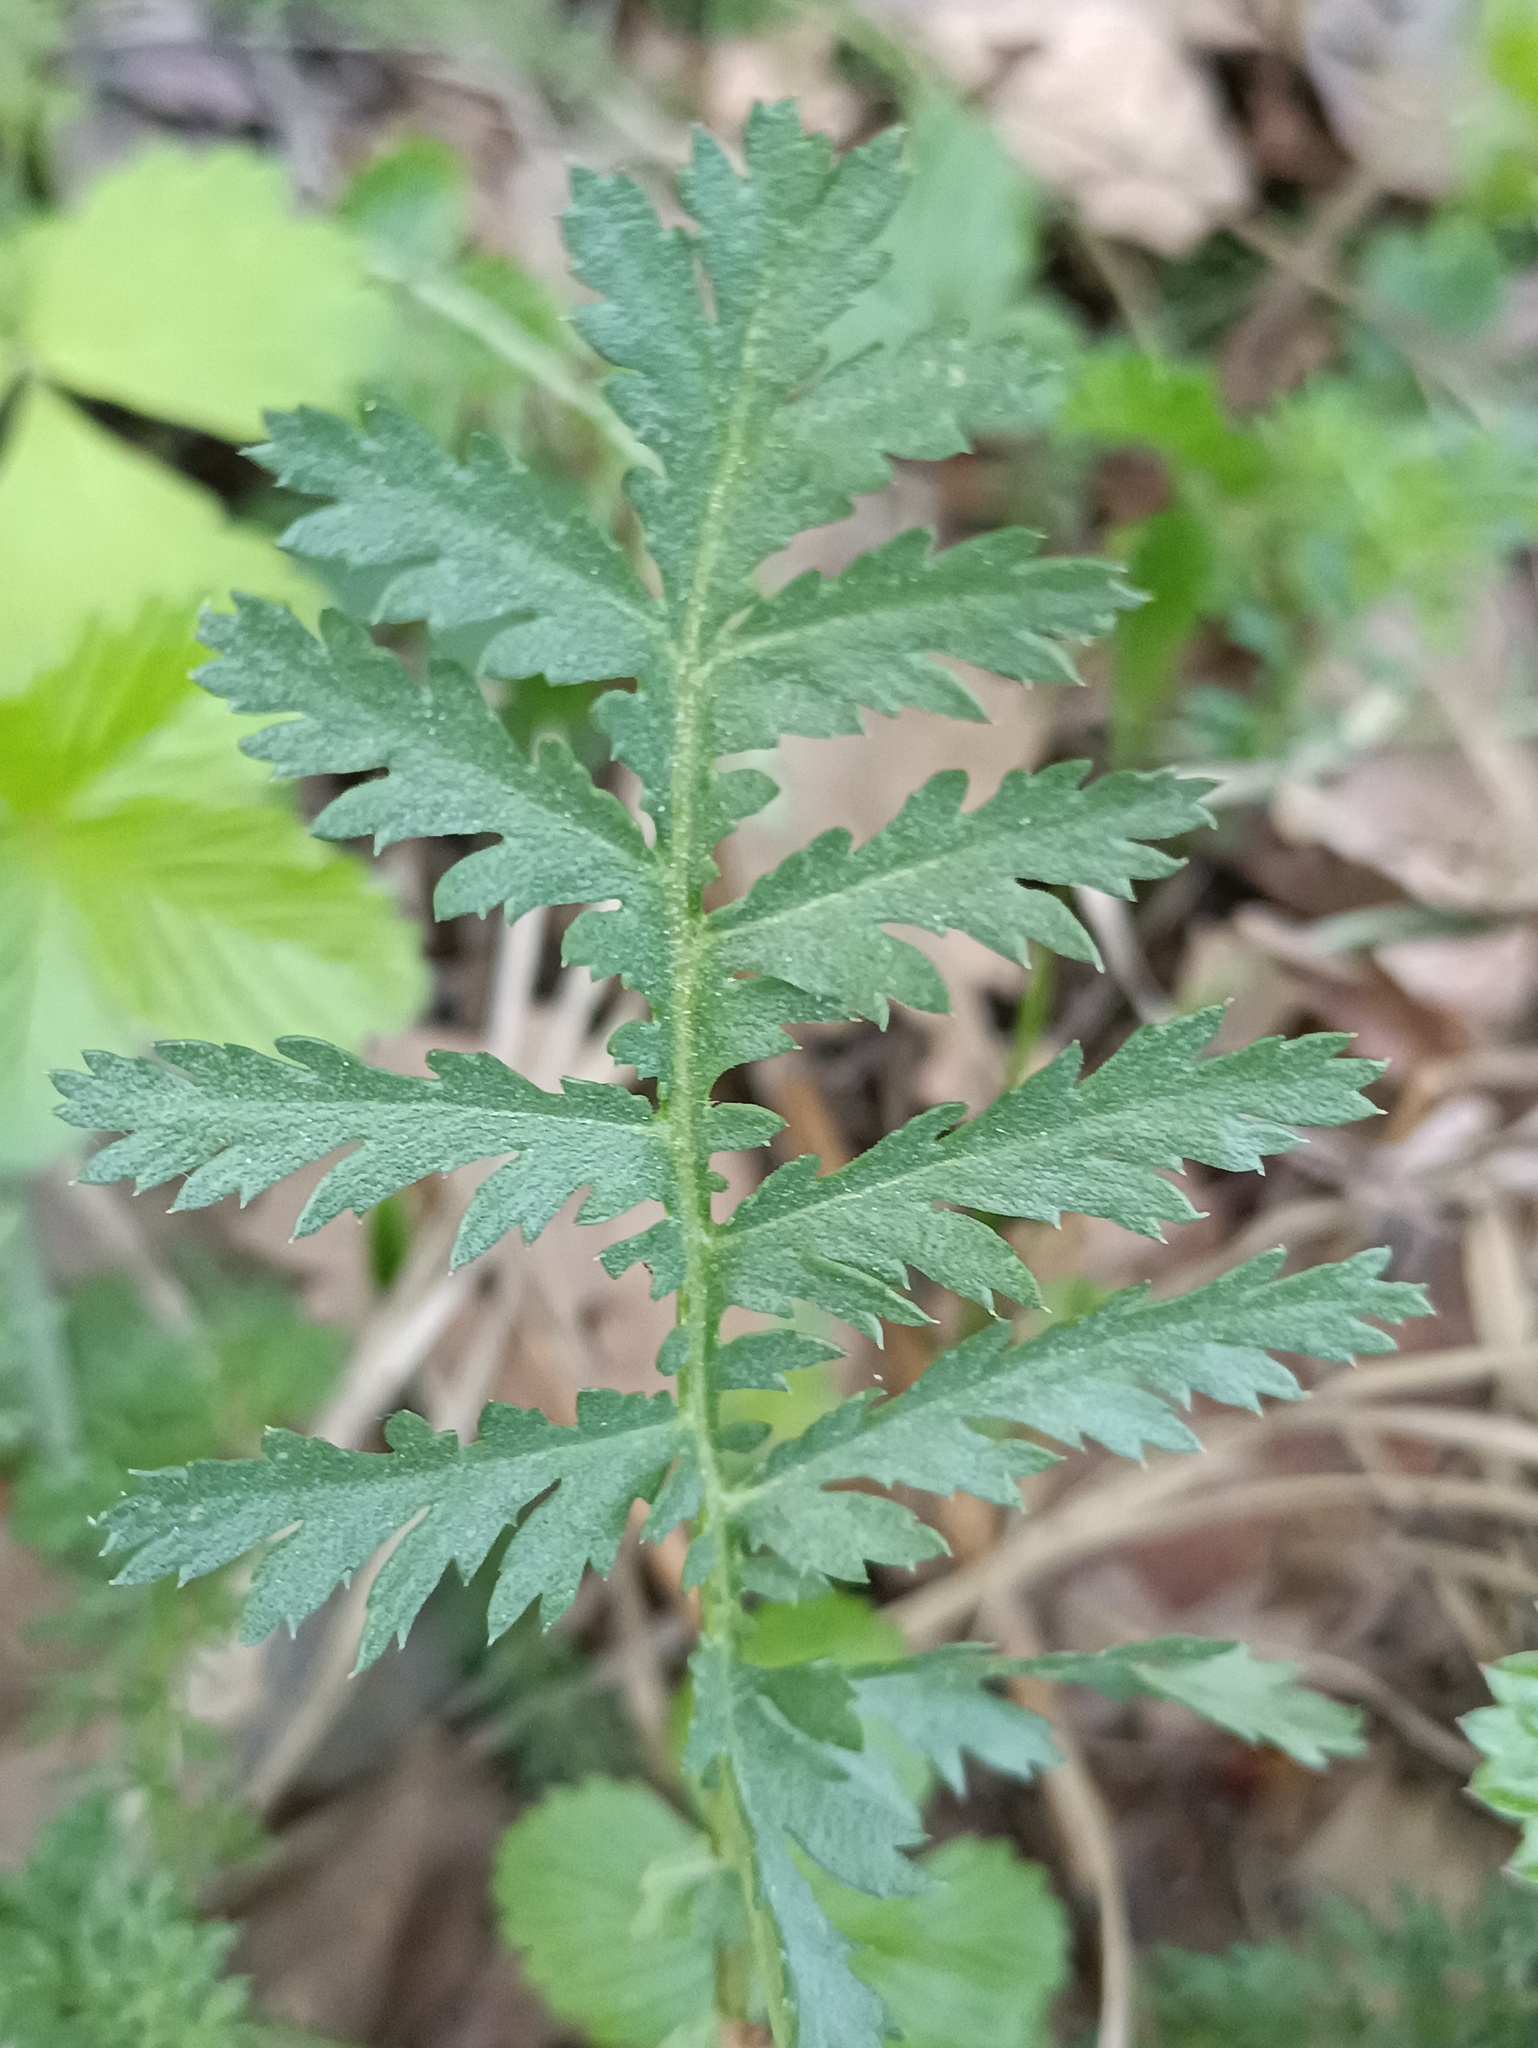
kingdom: Plantae
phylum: Tracheophyta
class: Magnoliopsida
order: Asterales
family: Asteraceae
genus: Tanacetum
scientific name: Tanacetum vulgare
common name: Common tansy
